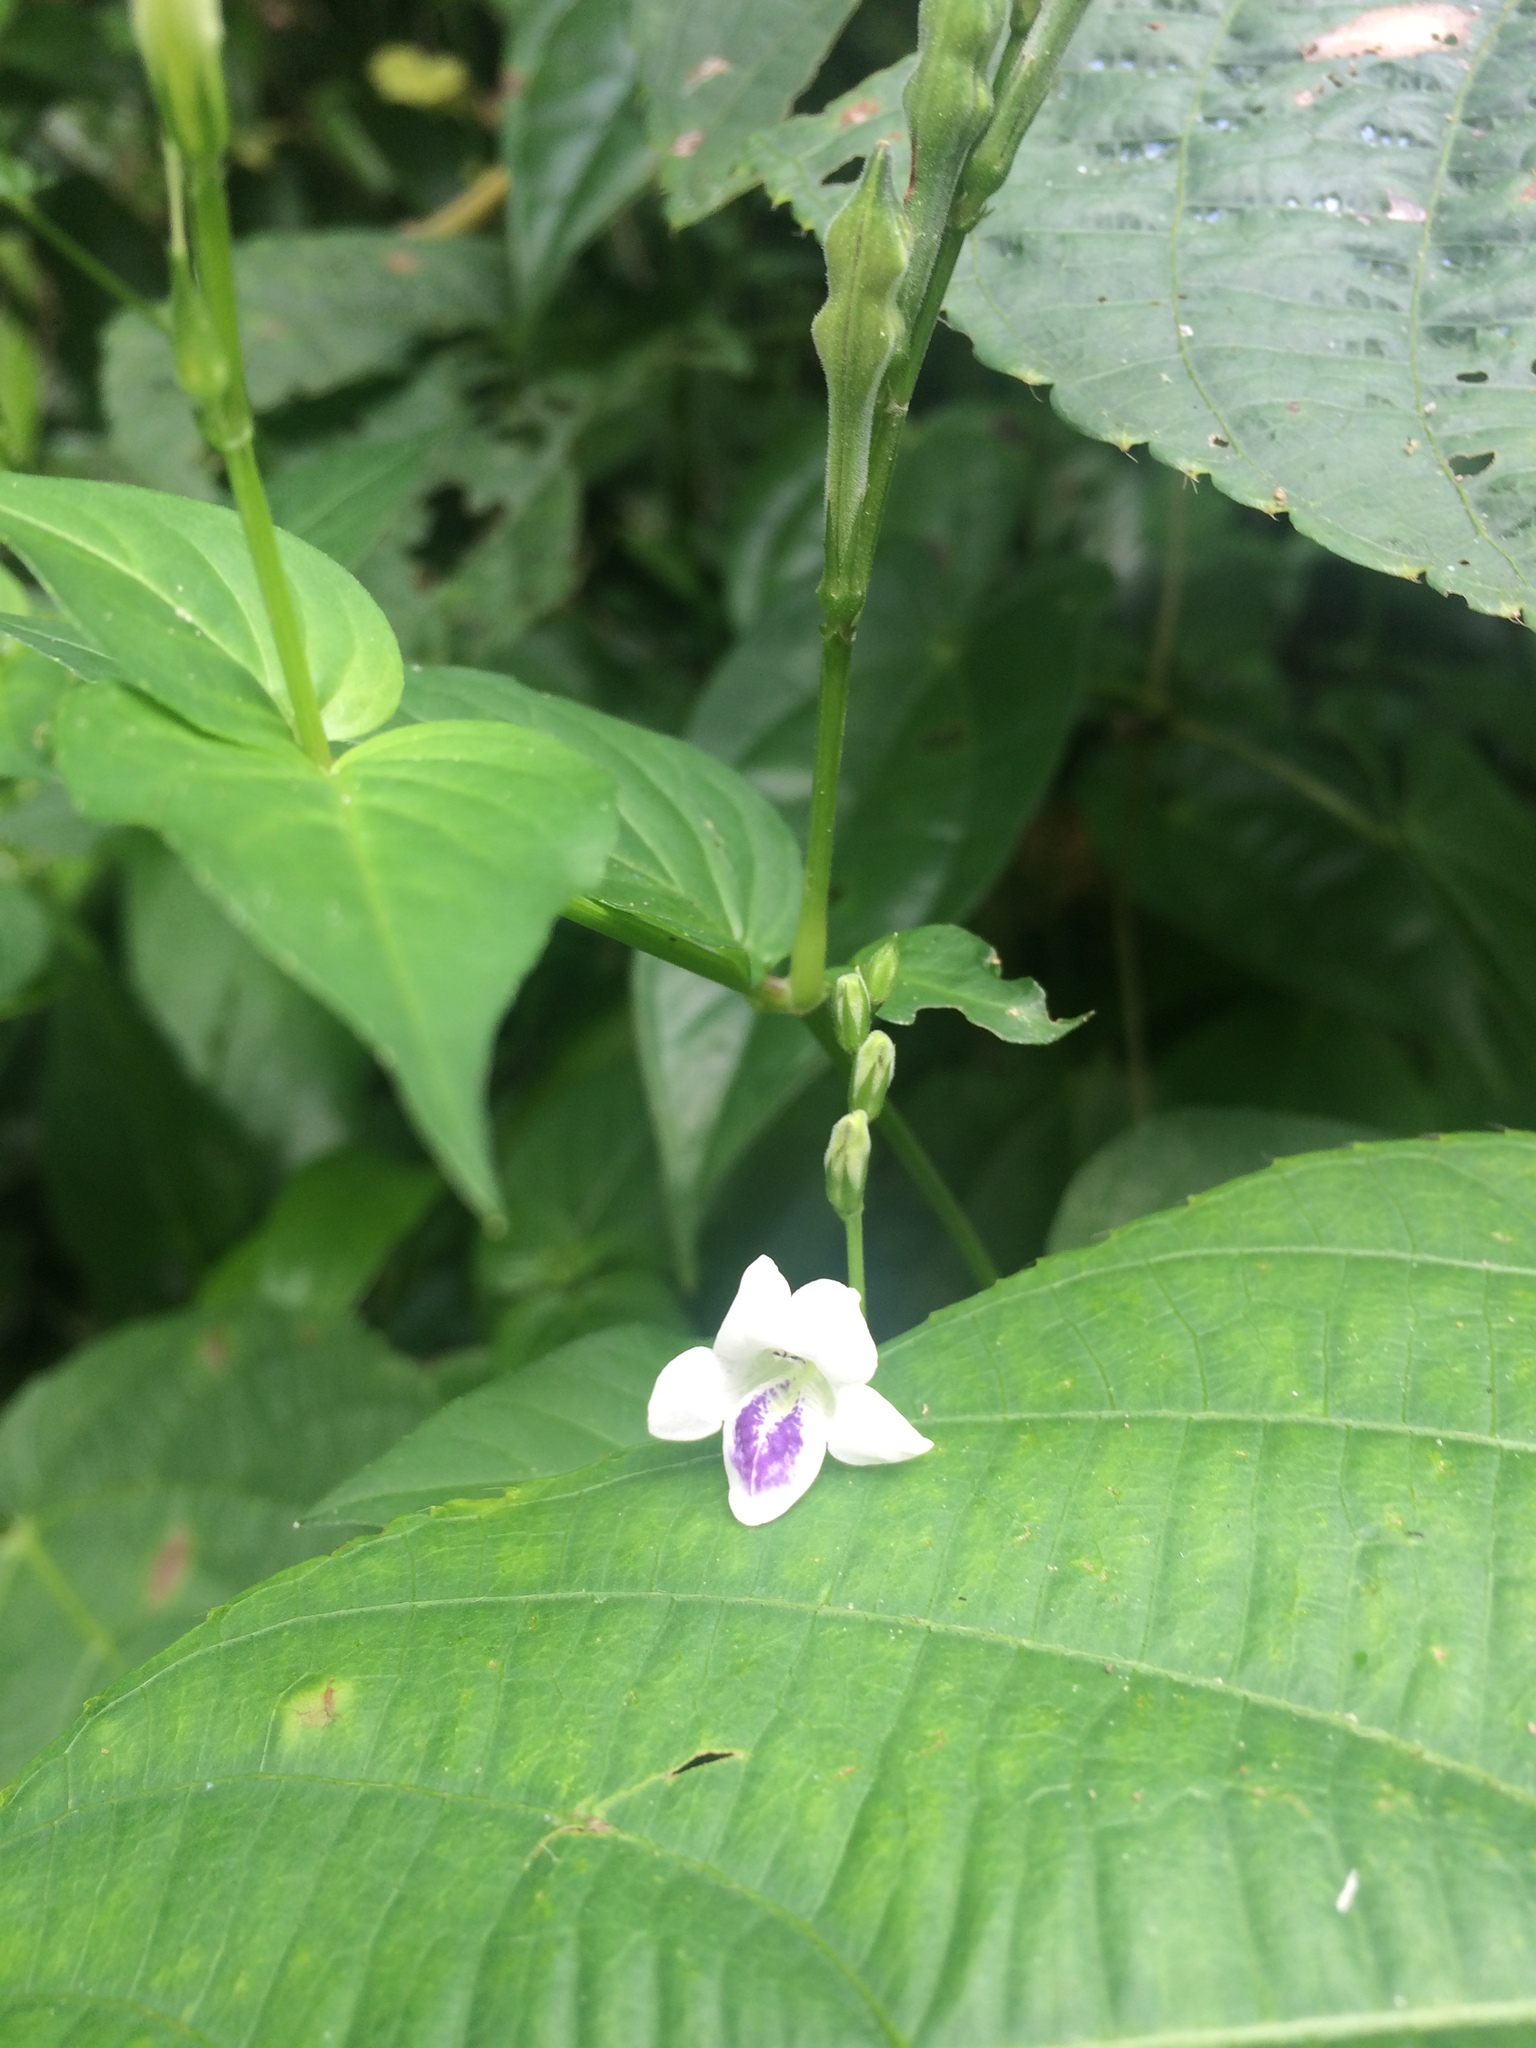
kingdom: Plantae
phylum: Tracheophyta
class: Magnoliopsida
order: Lamiales
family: Acanthaceae
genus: Asystasia
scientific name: Asystasia intrusa
